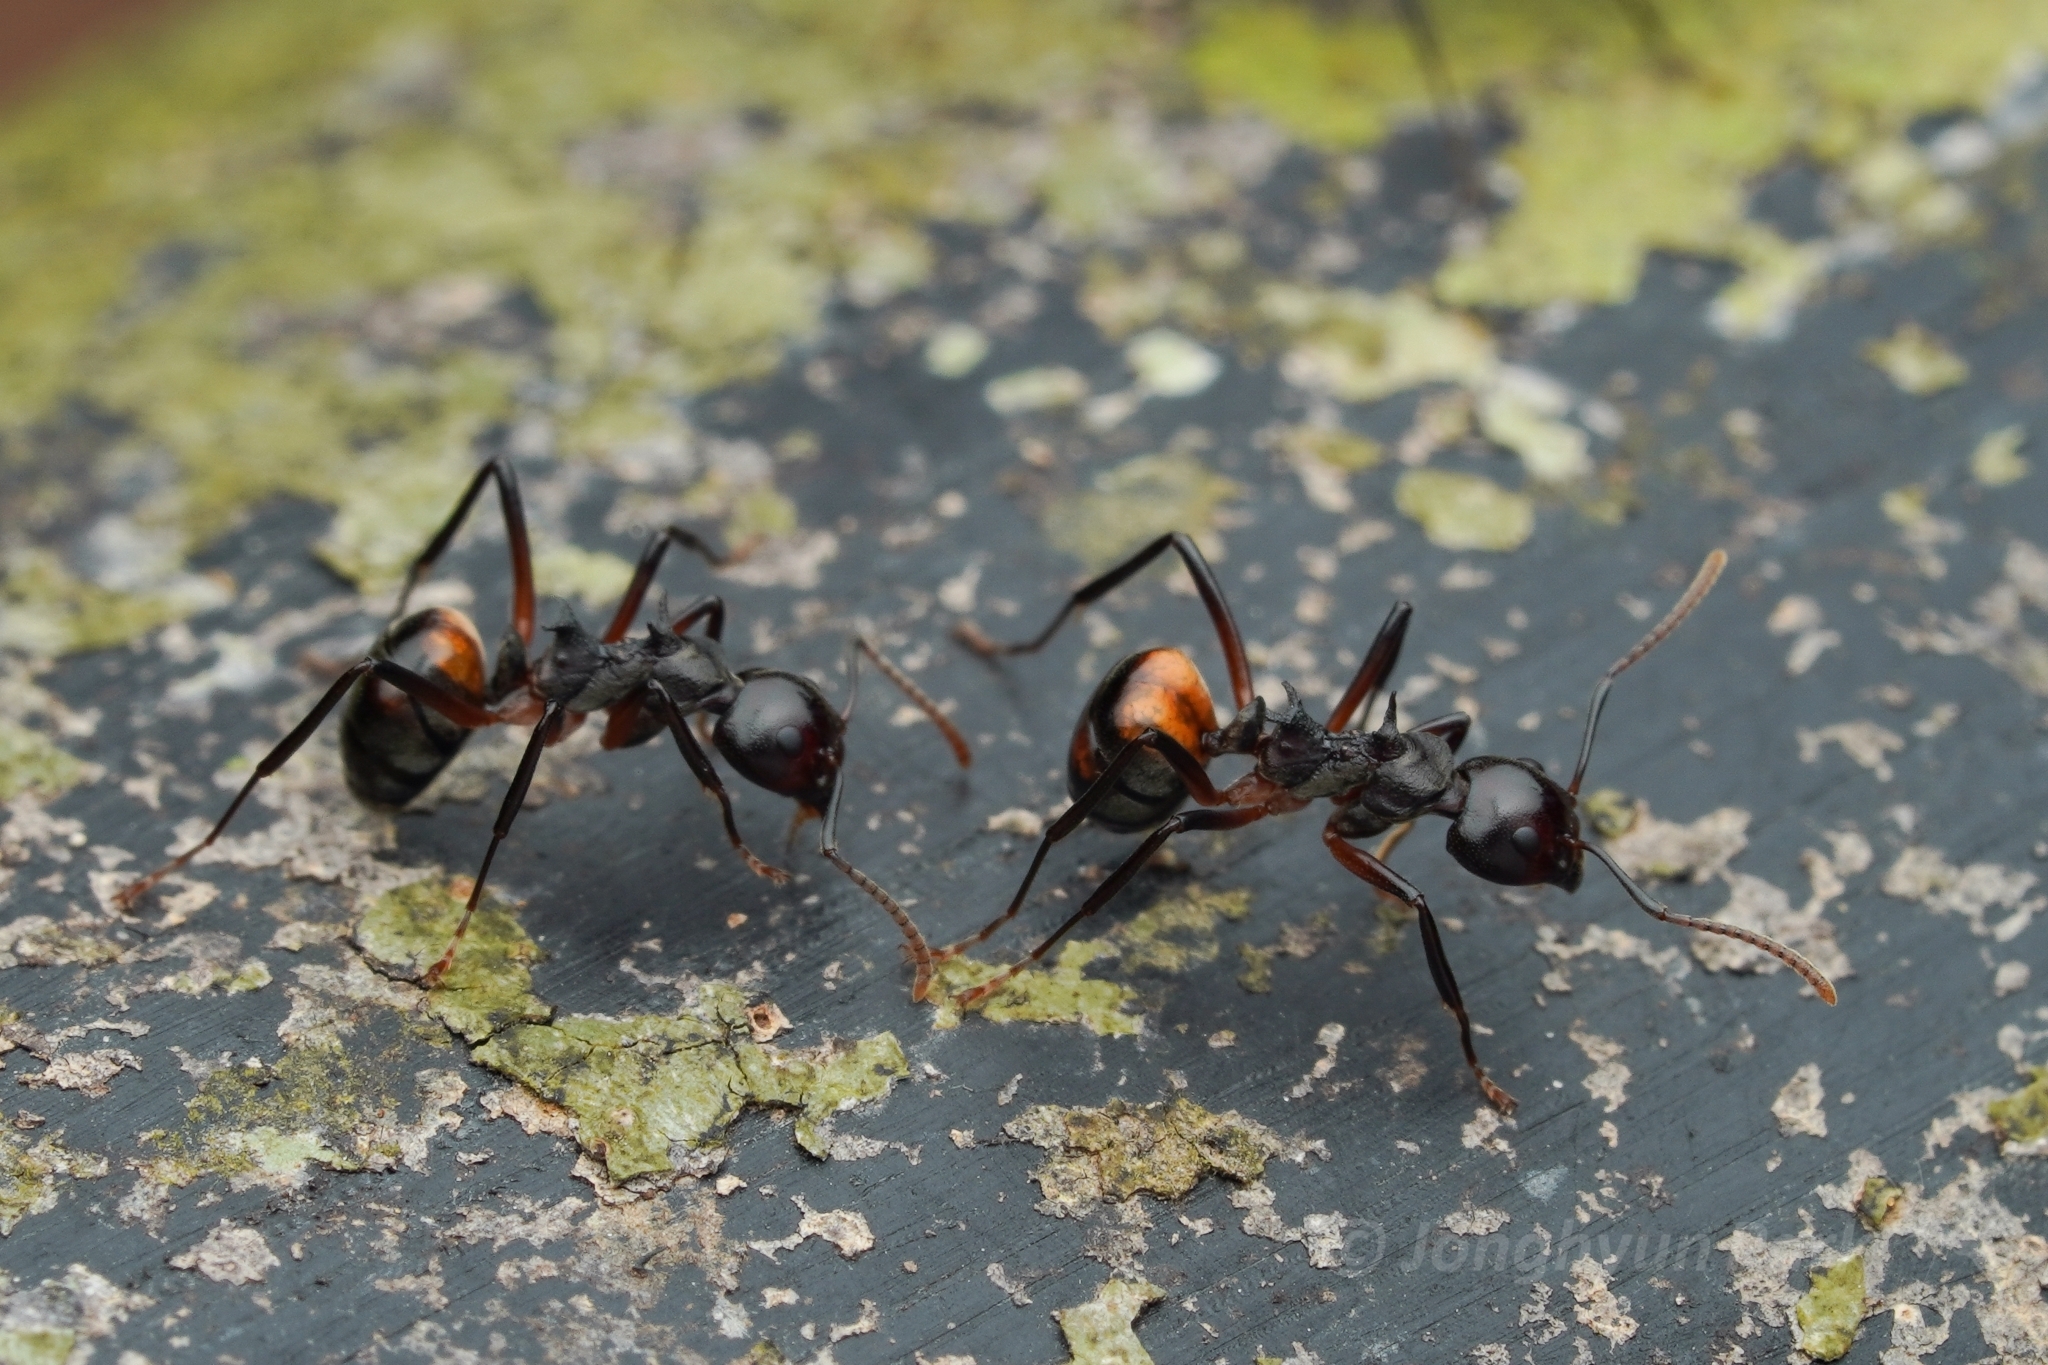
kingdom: Animalia
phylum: Arthropoda
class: Insecta
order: Hymenoptera
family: Formicidae
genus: Dolichoderus
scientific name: Dolichoderus cuspidatus
